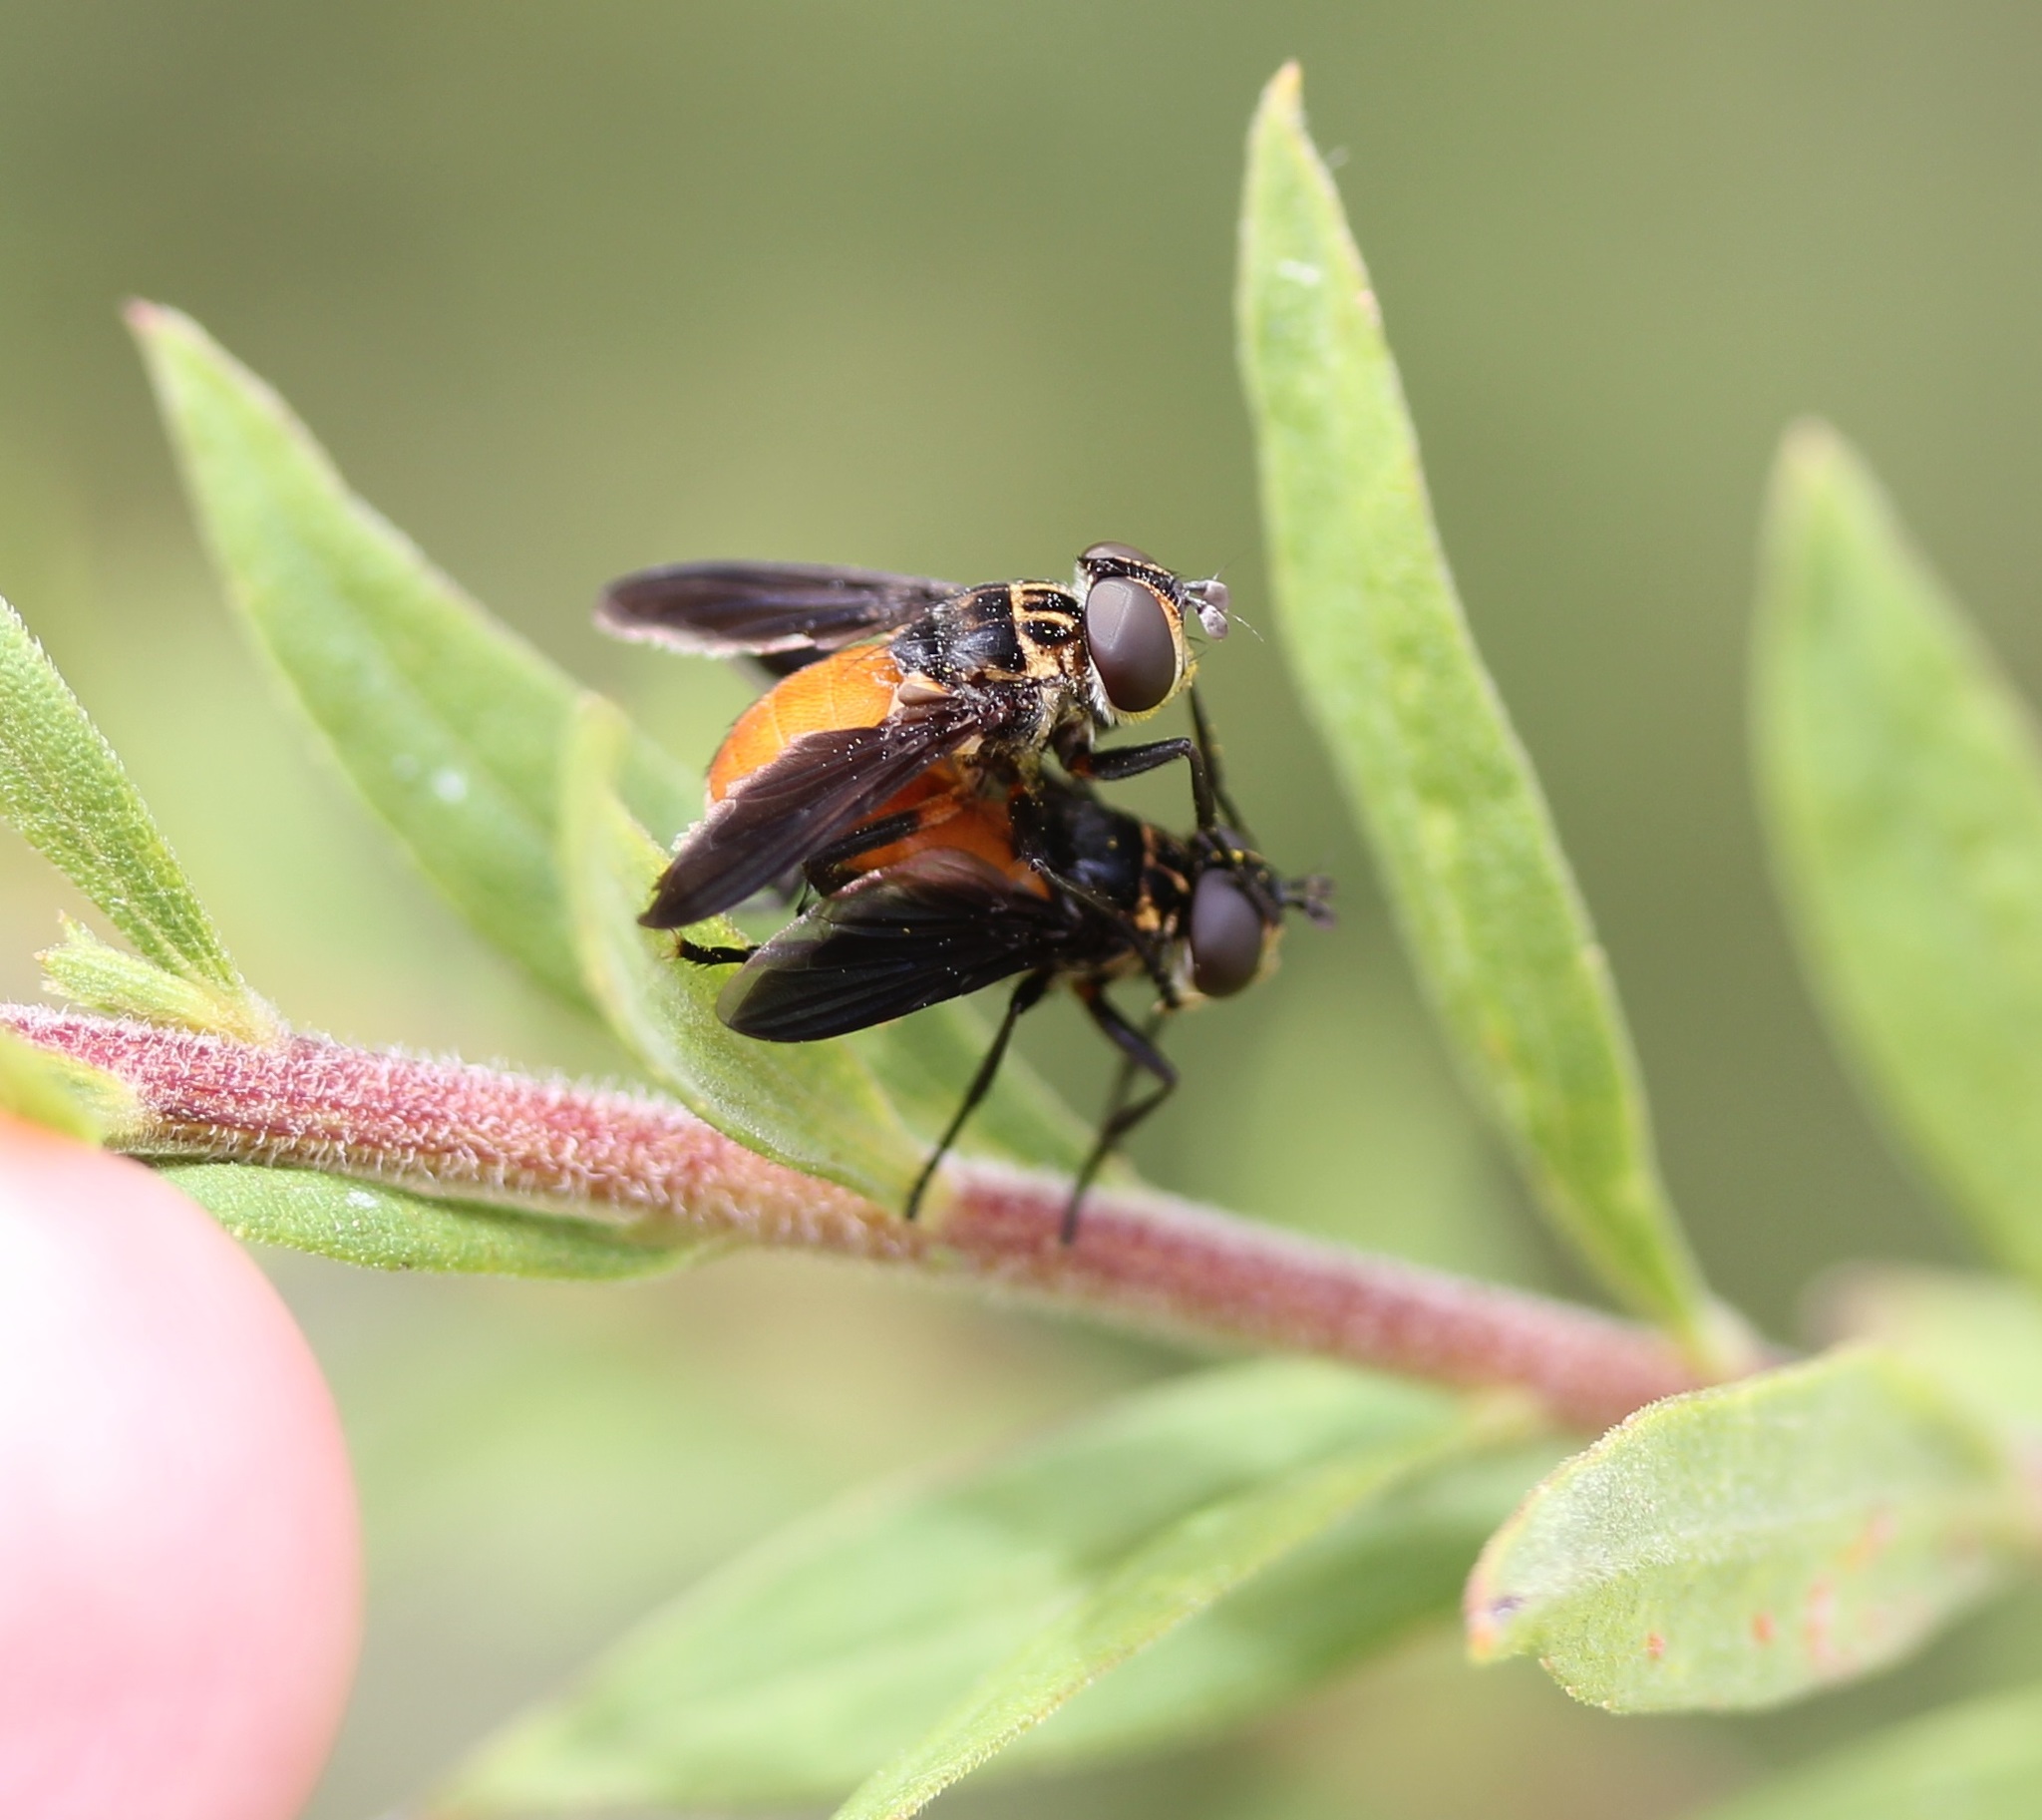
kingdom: Animalia
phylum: Arthropoda
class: Insecta
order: Diptera
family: Tachinidae
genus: Trichopoda
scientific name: Trichopoda pennipes
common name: Tachinid fly
